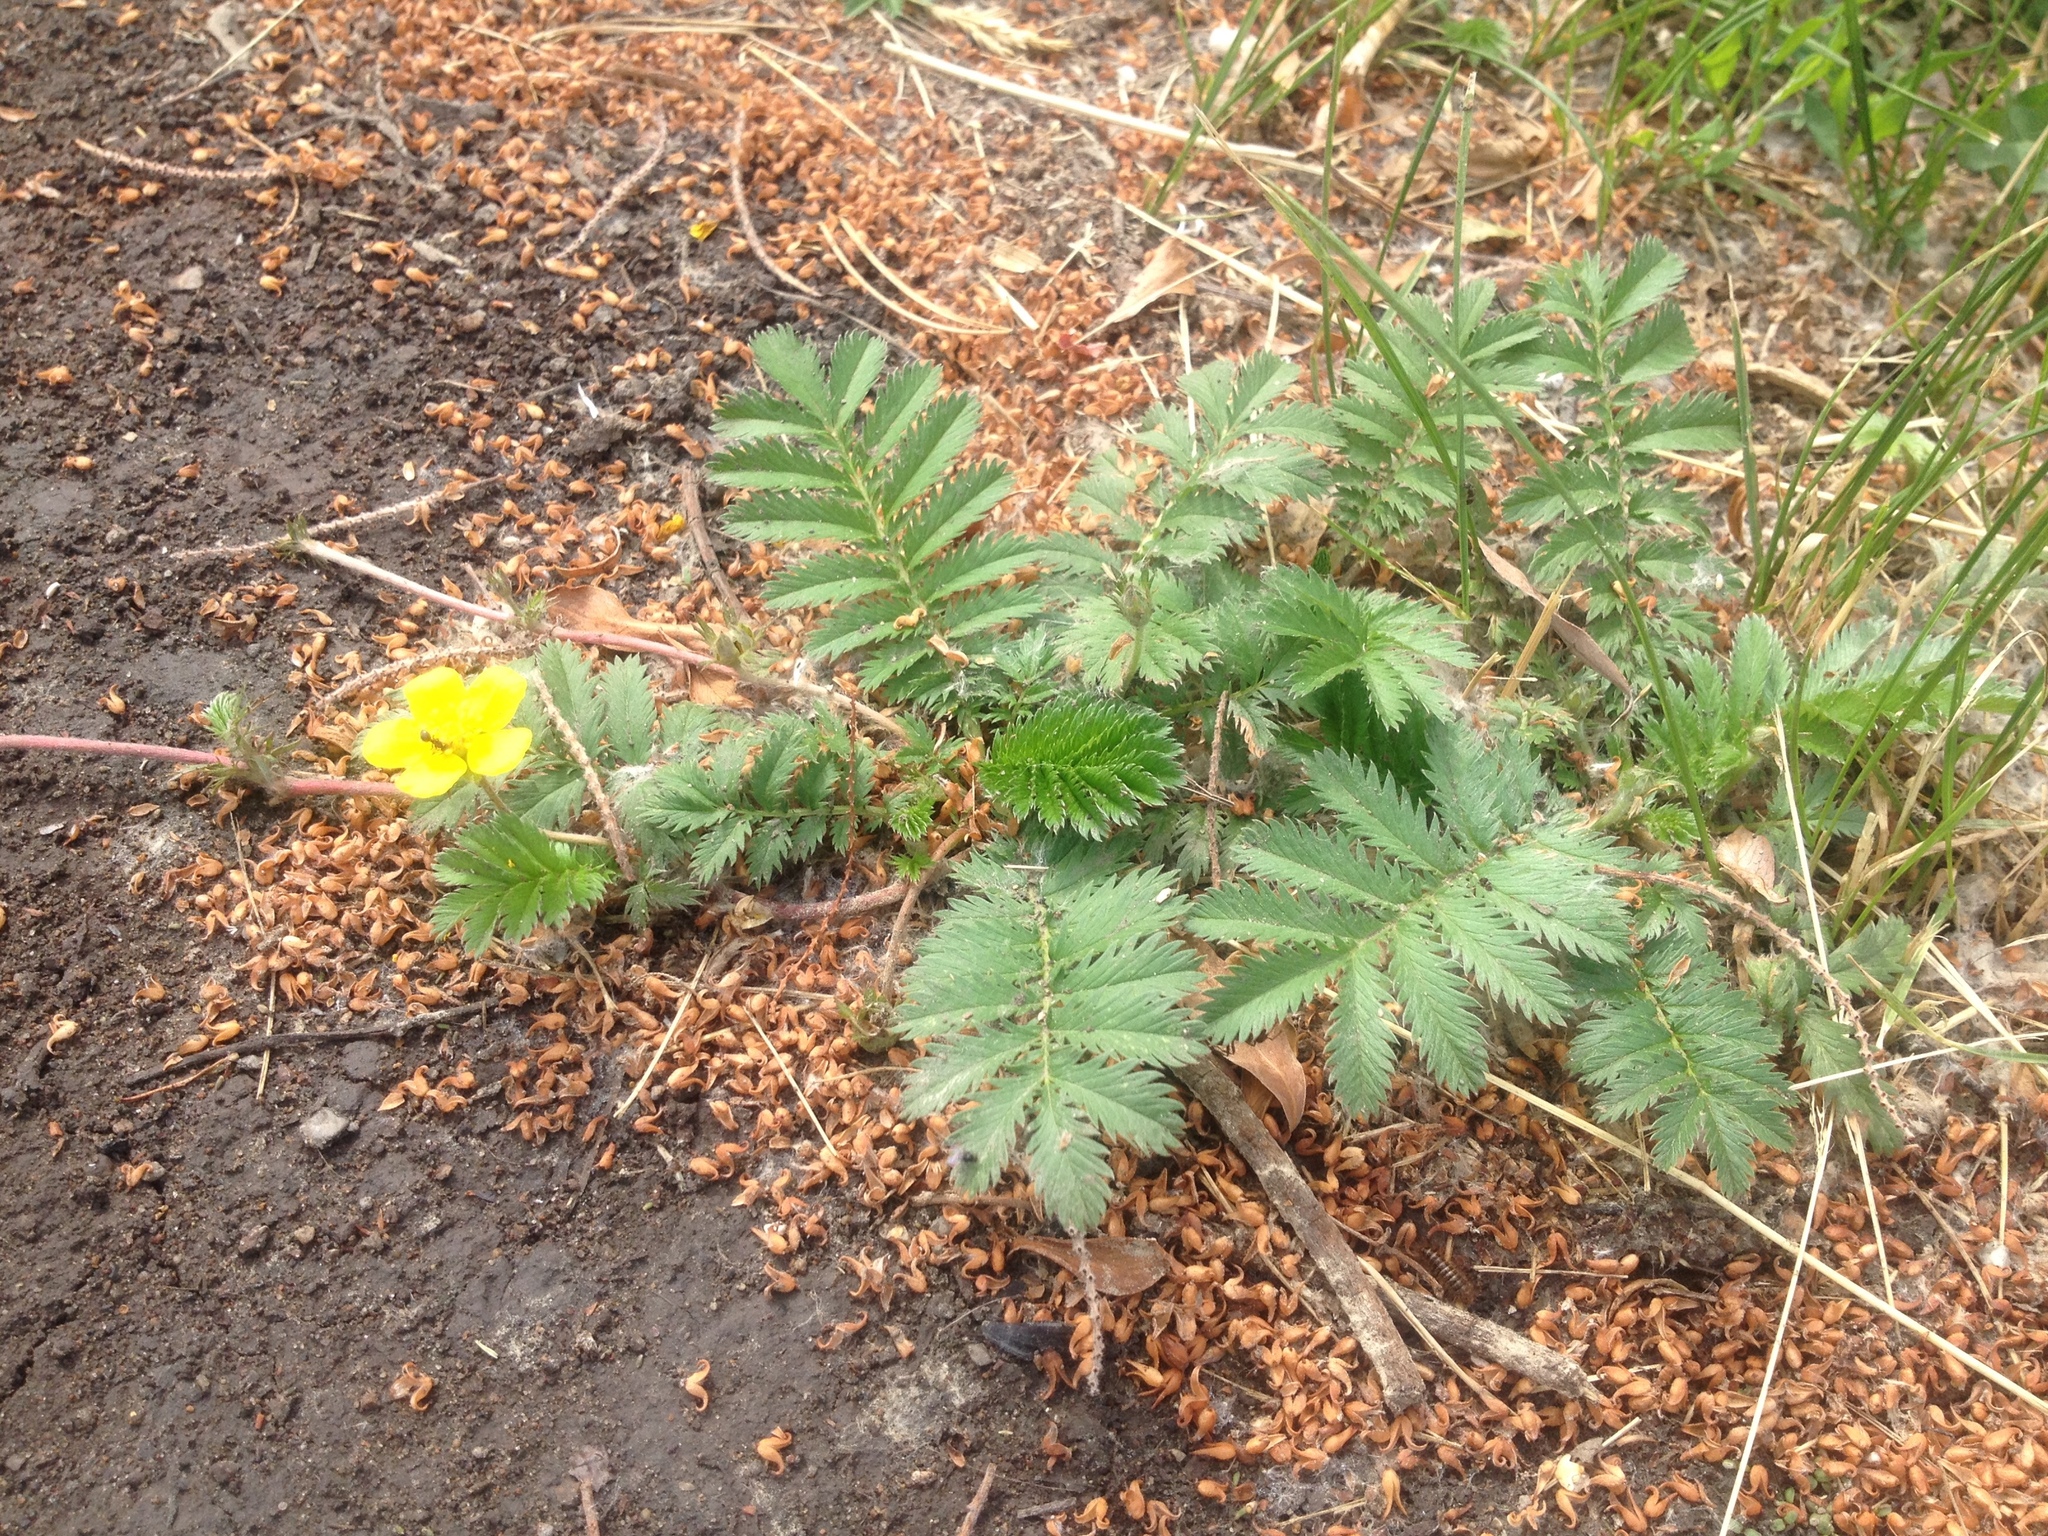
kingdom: Plantae
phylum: Tracheophyta
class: Magnoliopsida
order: Rosales
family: Rosaceae
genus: Argentina
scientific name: Argentina anserina
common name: Common silverweed
